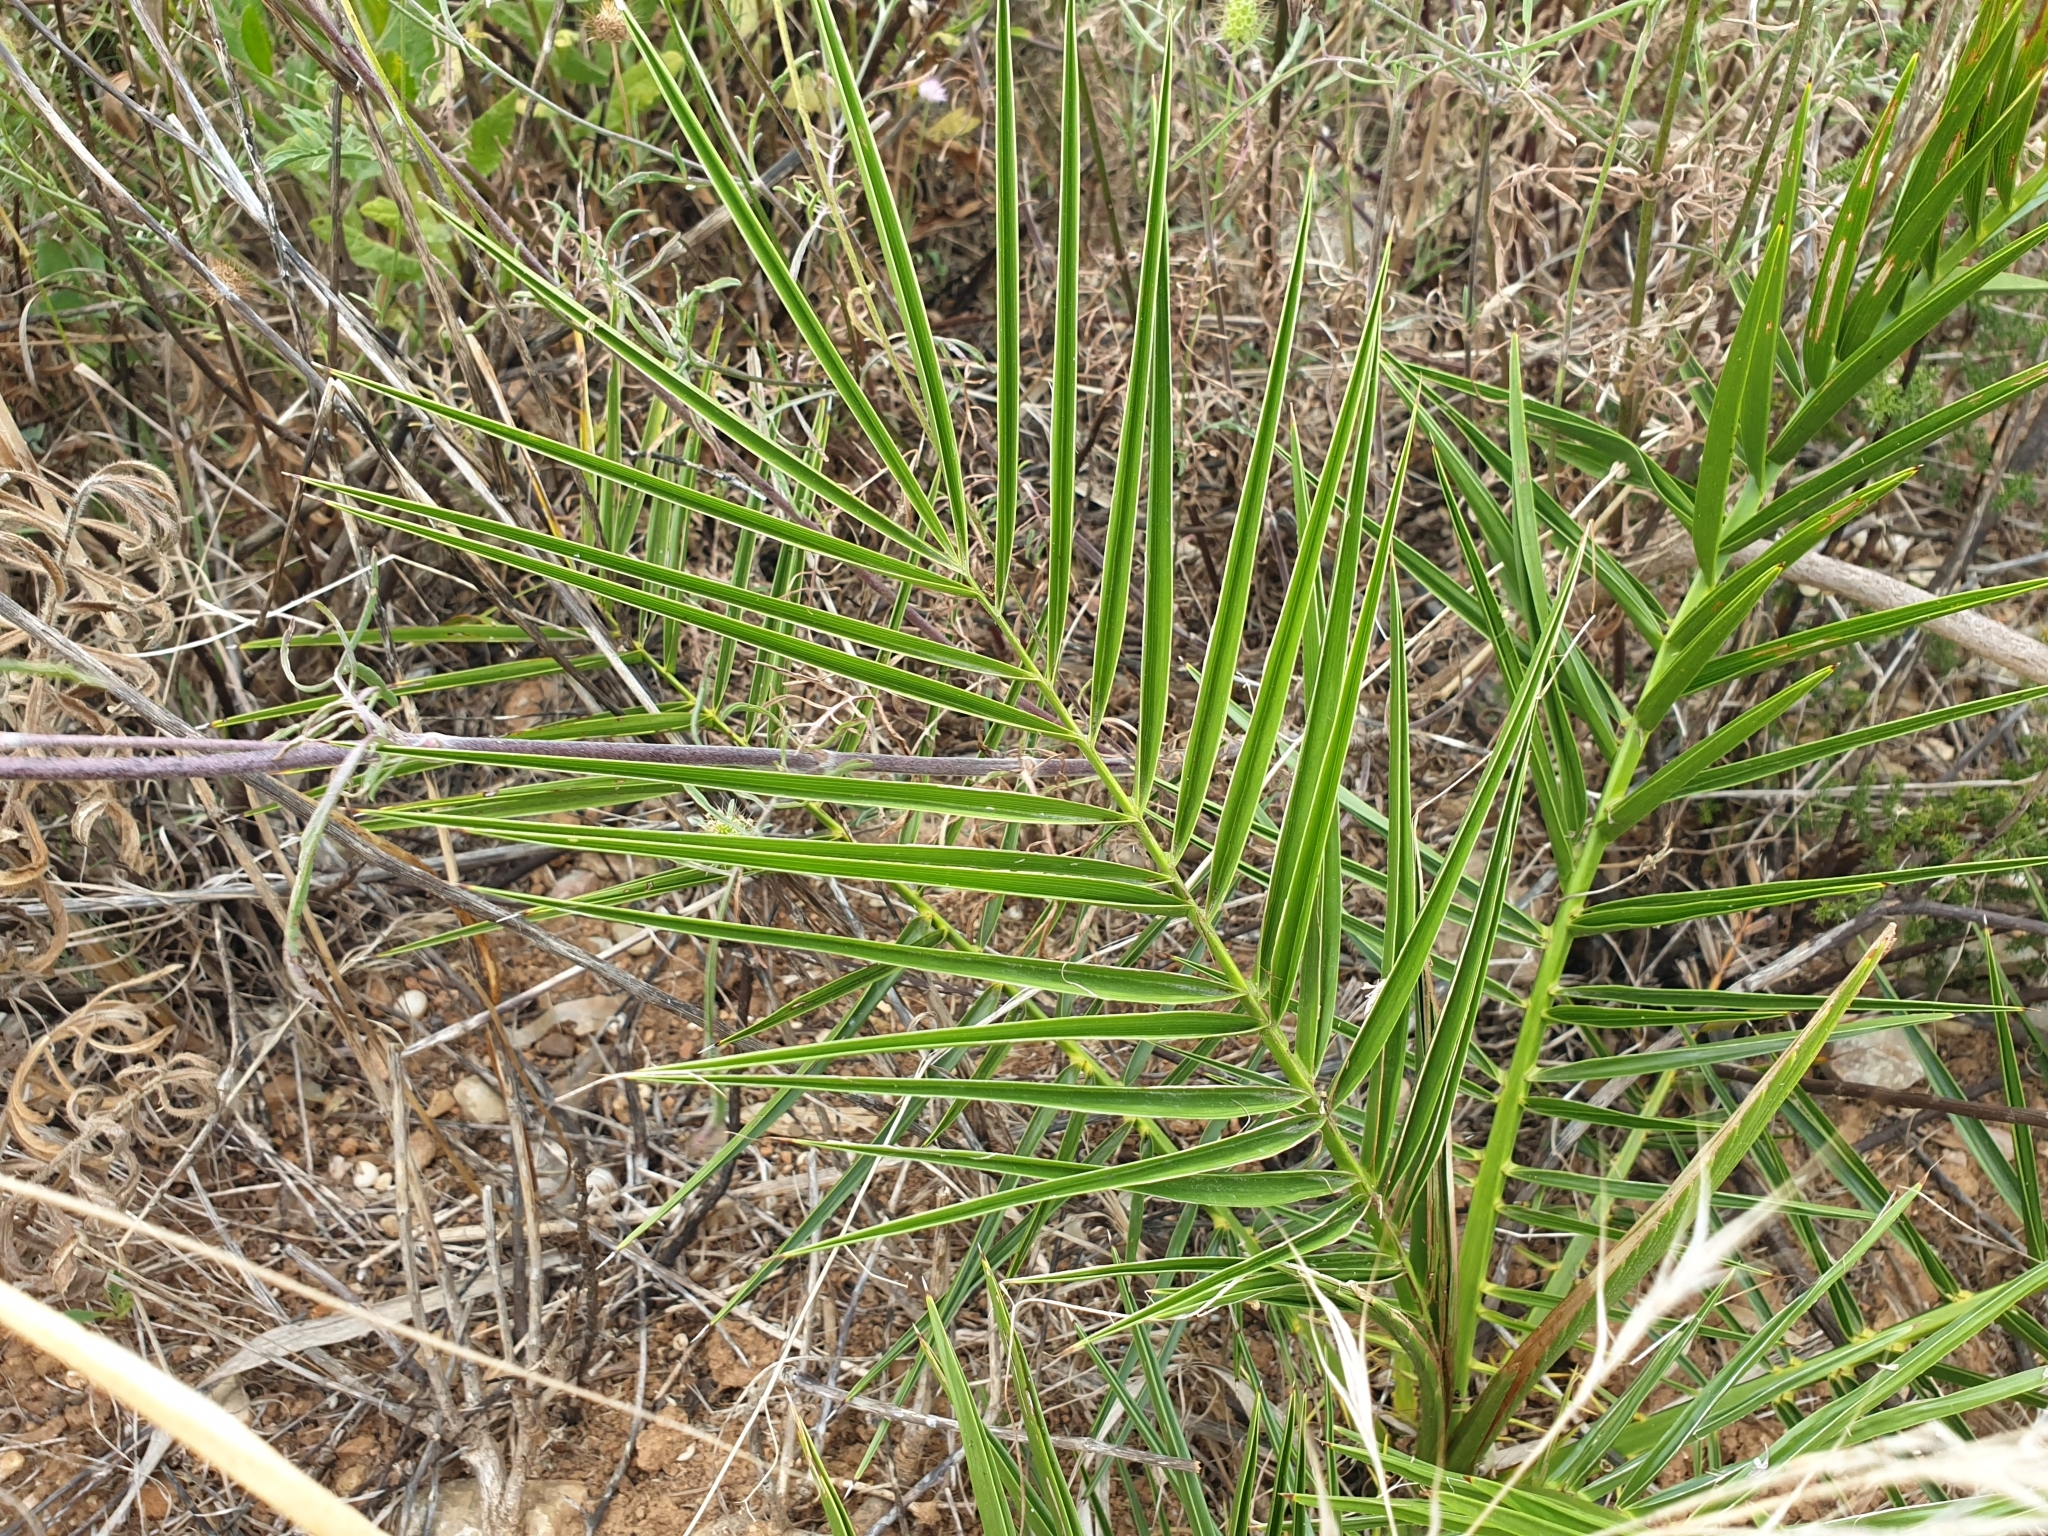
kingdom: Plantae
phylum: Tracheophyta
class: Liliopsida
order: Arecales
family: Arecaceae
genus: Phoenix
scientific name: Phoenix canariensis
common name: Canary island date palm
